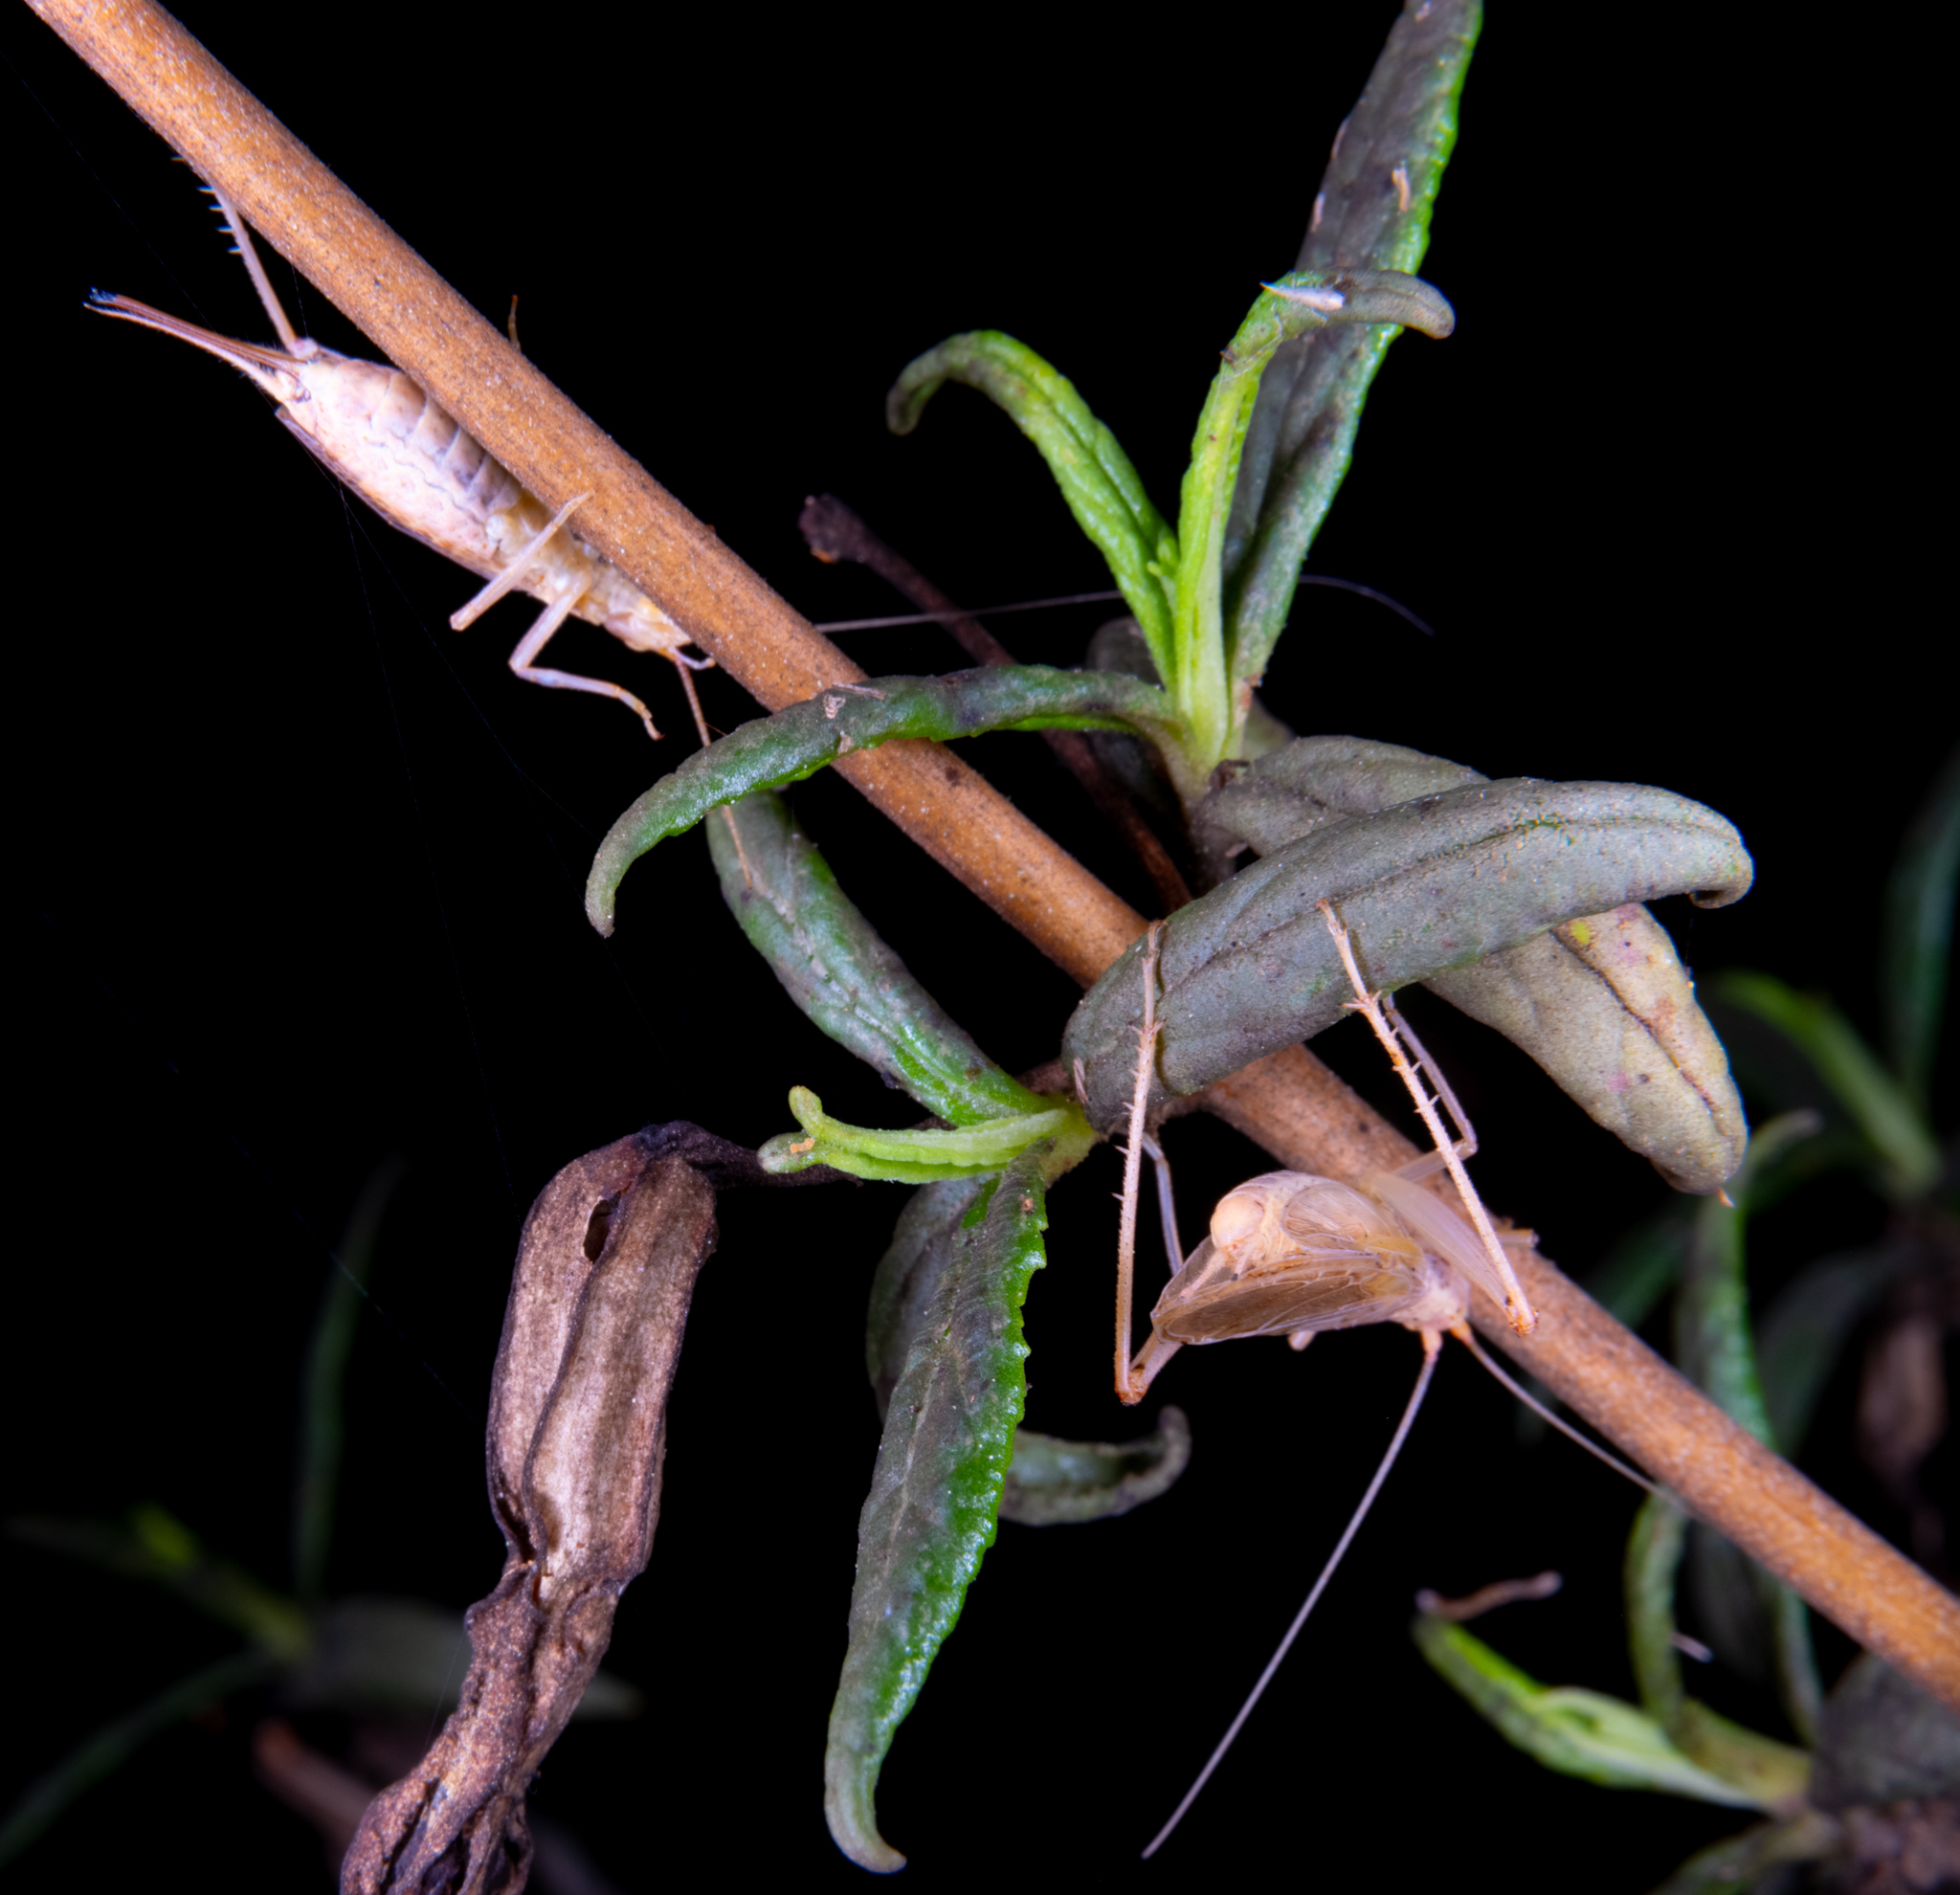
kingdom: Animalia
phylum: Arthropoda
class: Insecta
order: Orthoptera
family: Gryllidae
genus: Oecanthus
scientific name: Oecanthus californicus
